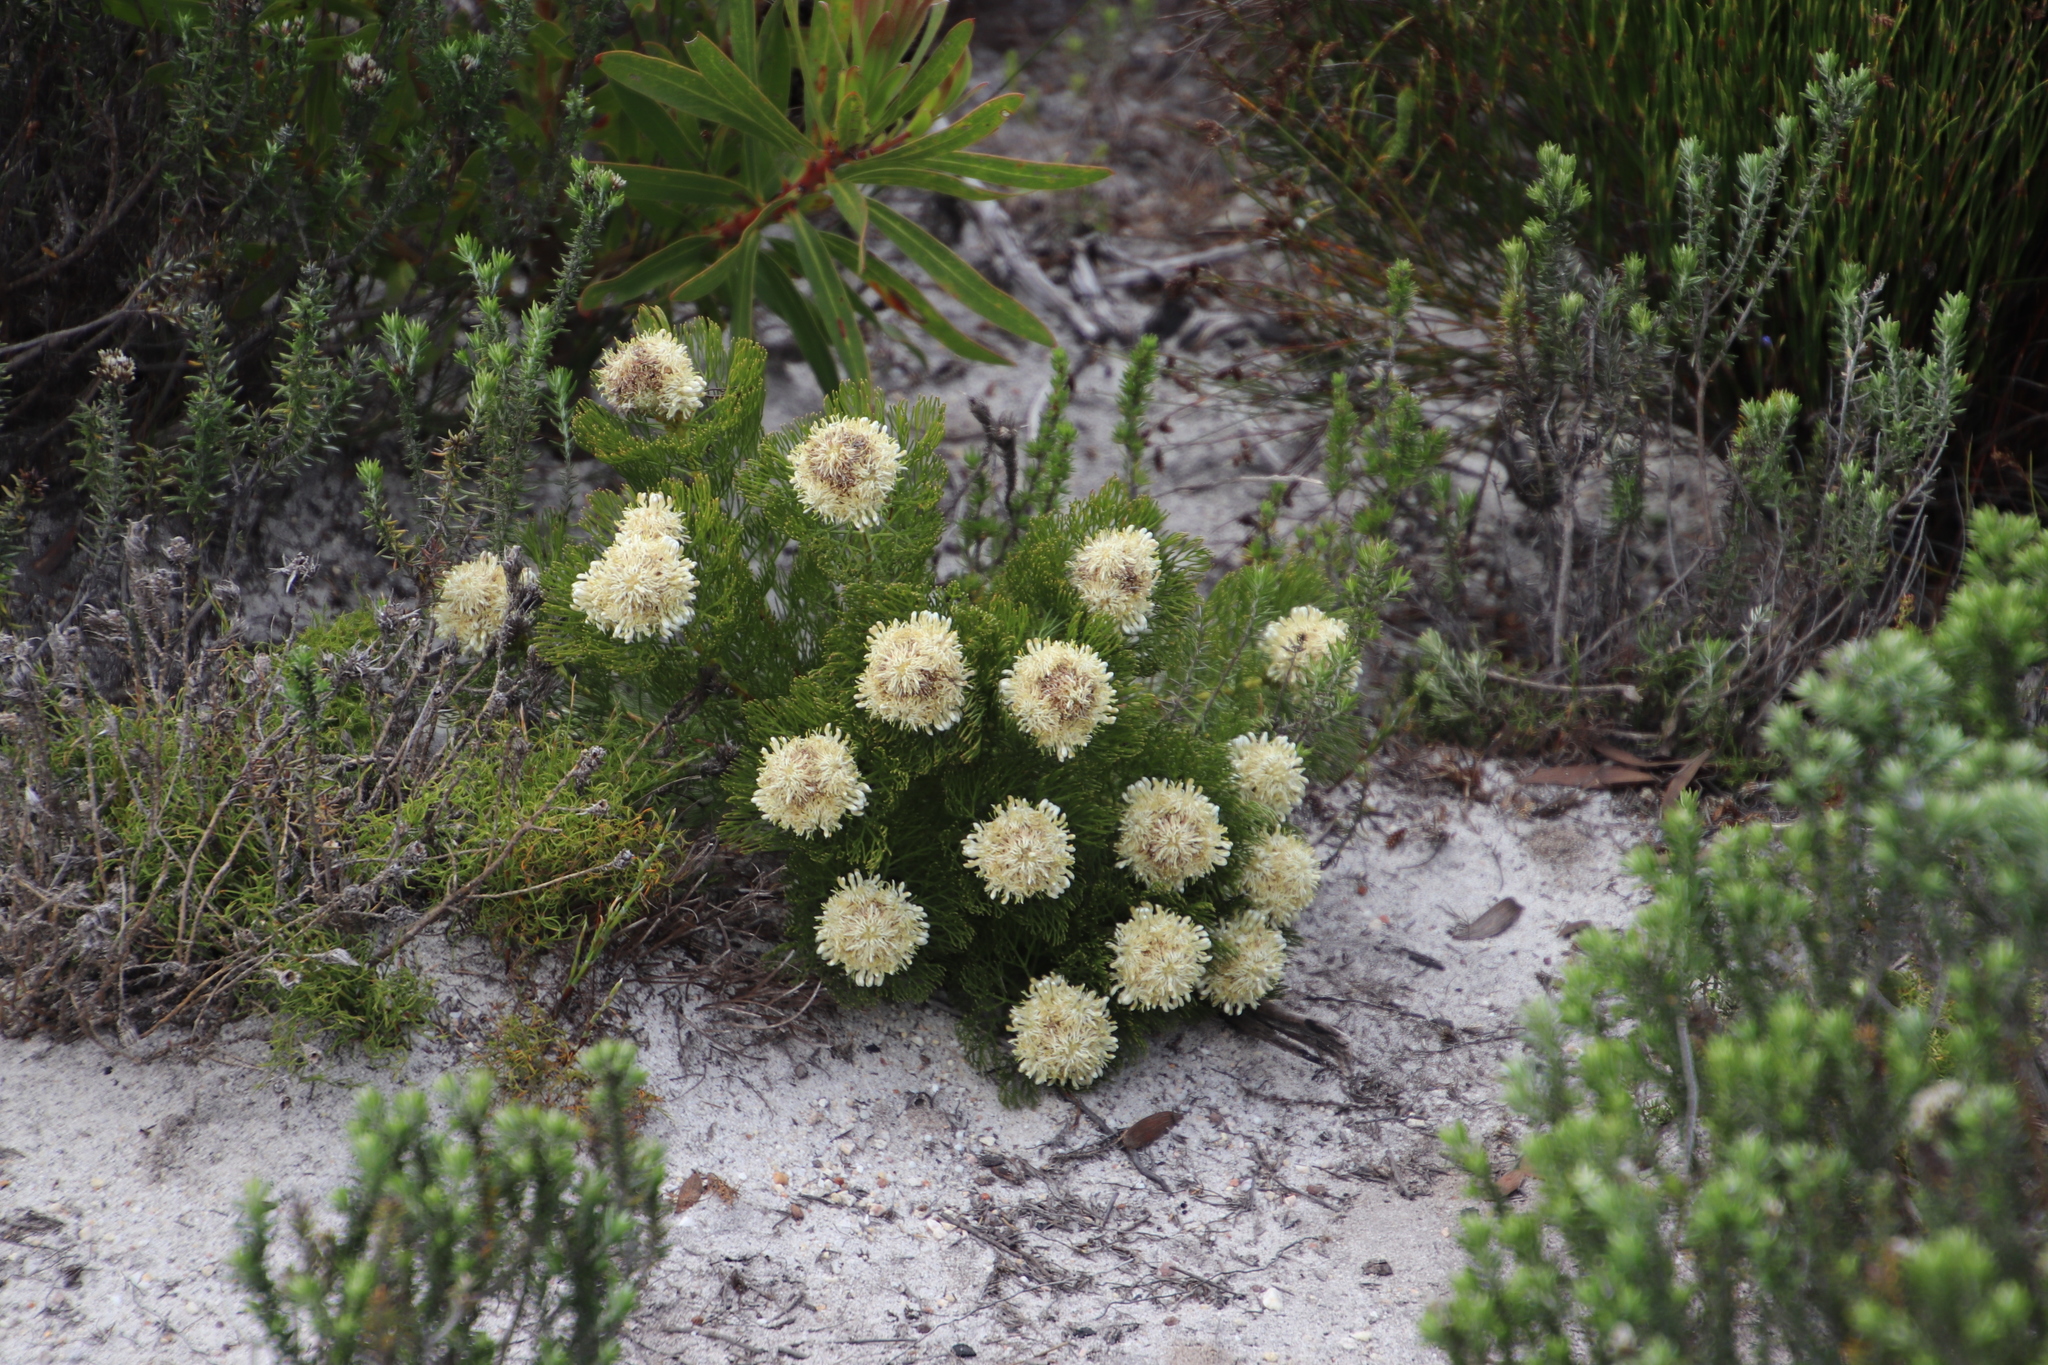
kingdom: Plantae
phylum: Tracheophyta
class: Magnoliopsida
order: Proteales
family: Proteaceae
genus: Serruria
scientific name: Serruria glomerata
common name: Cluster spiderhead
